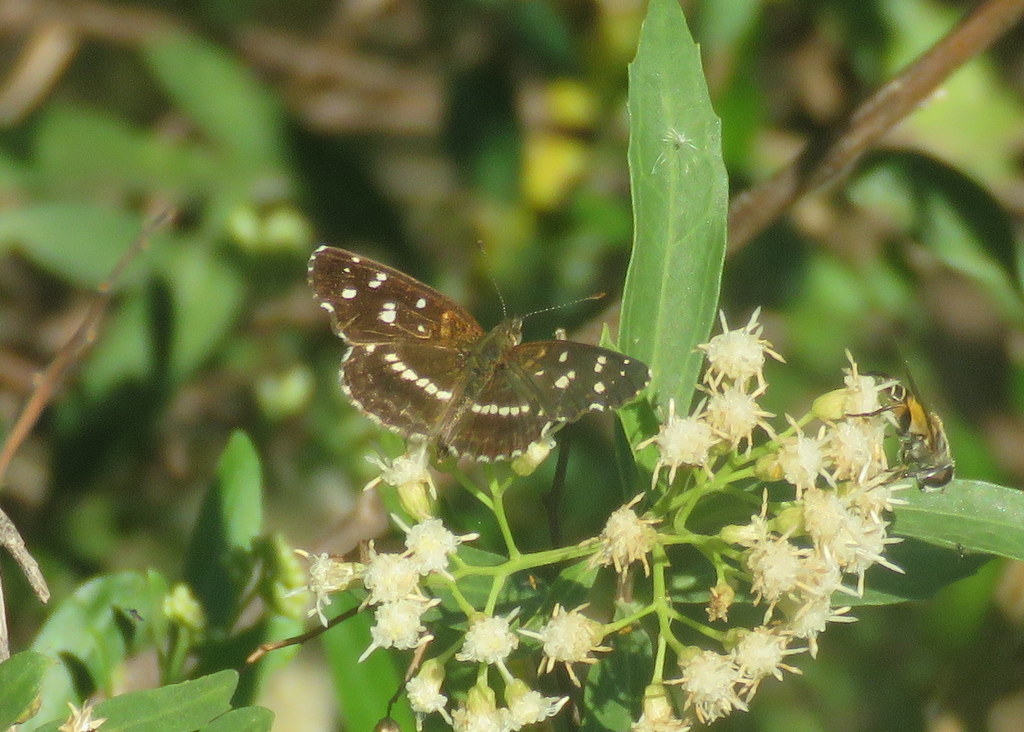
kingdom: Animalia
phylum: Arthropoda
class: Insecta
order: Lepidoptera
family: Nymphalidae
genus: Ortilia
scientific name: Ortilia ithra
